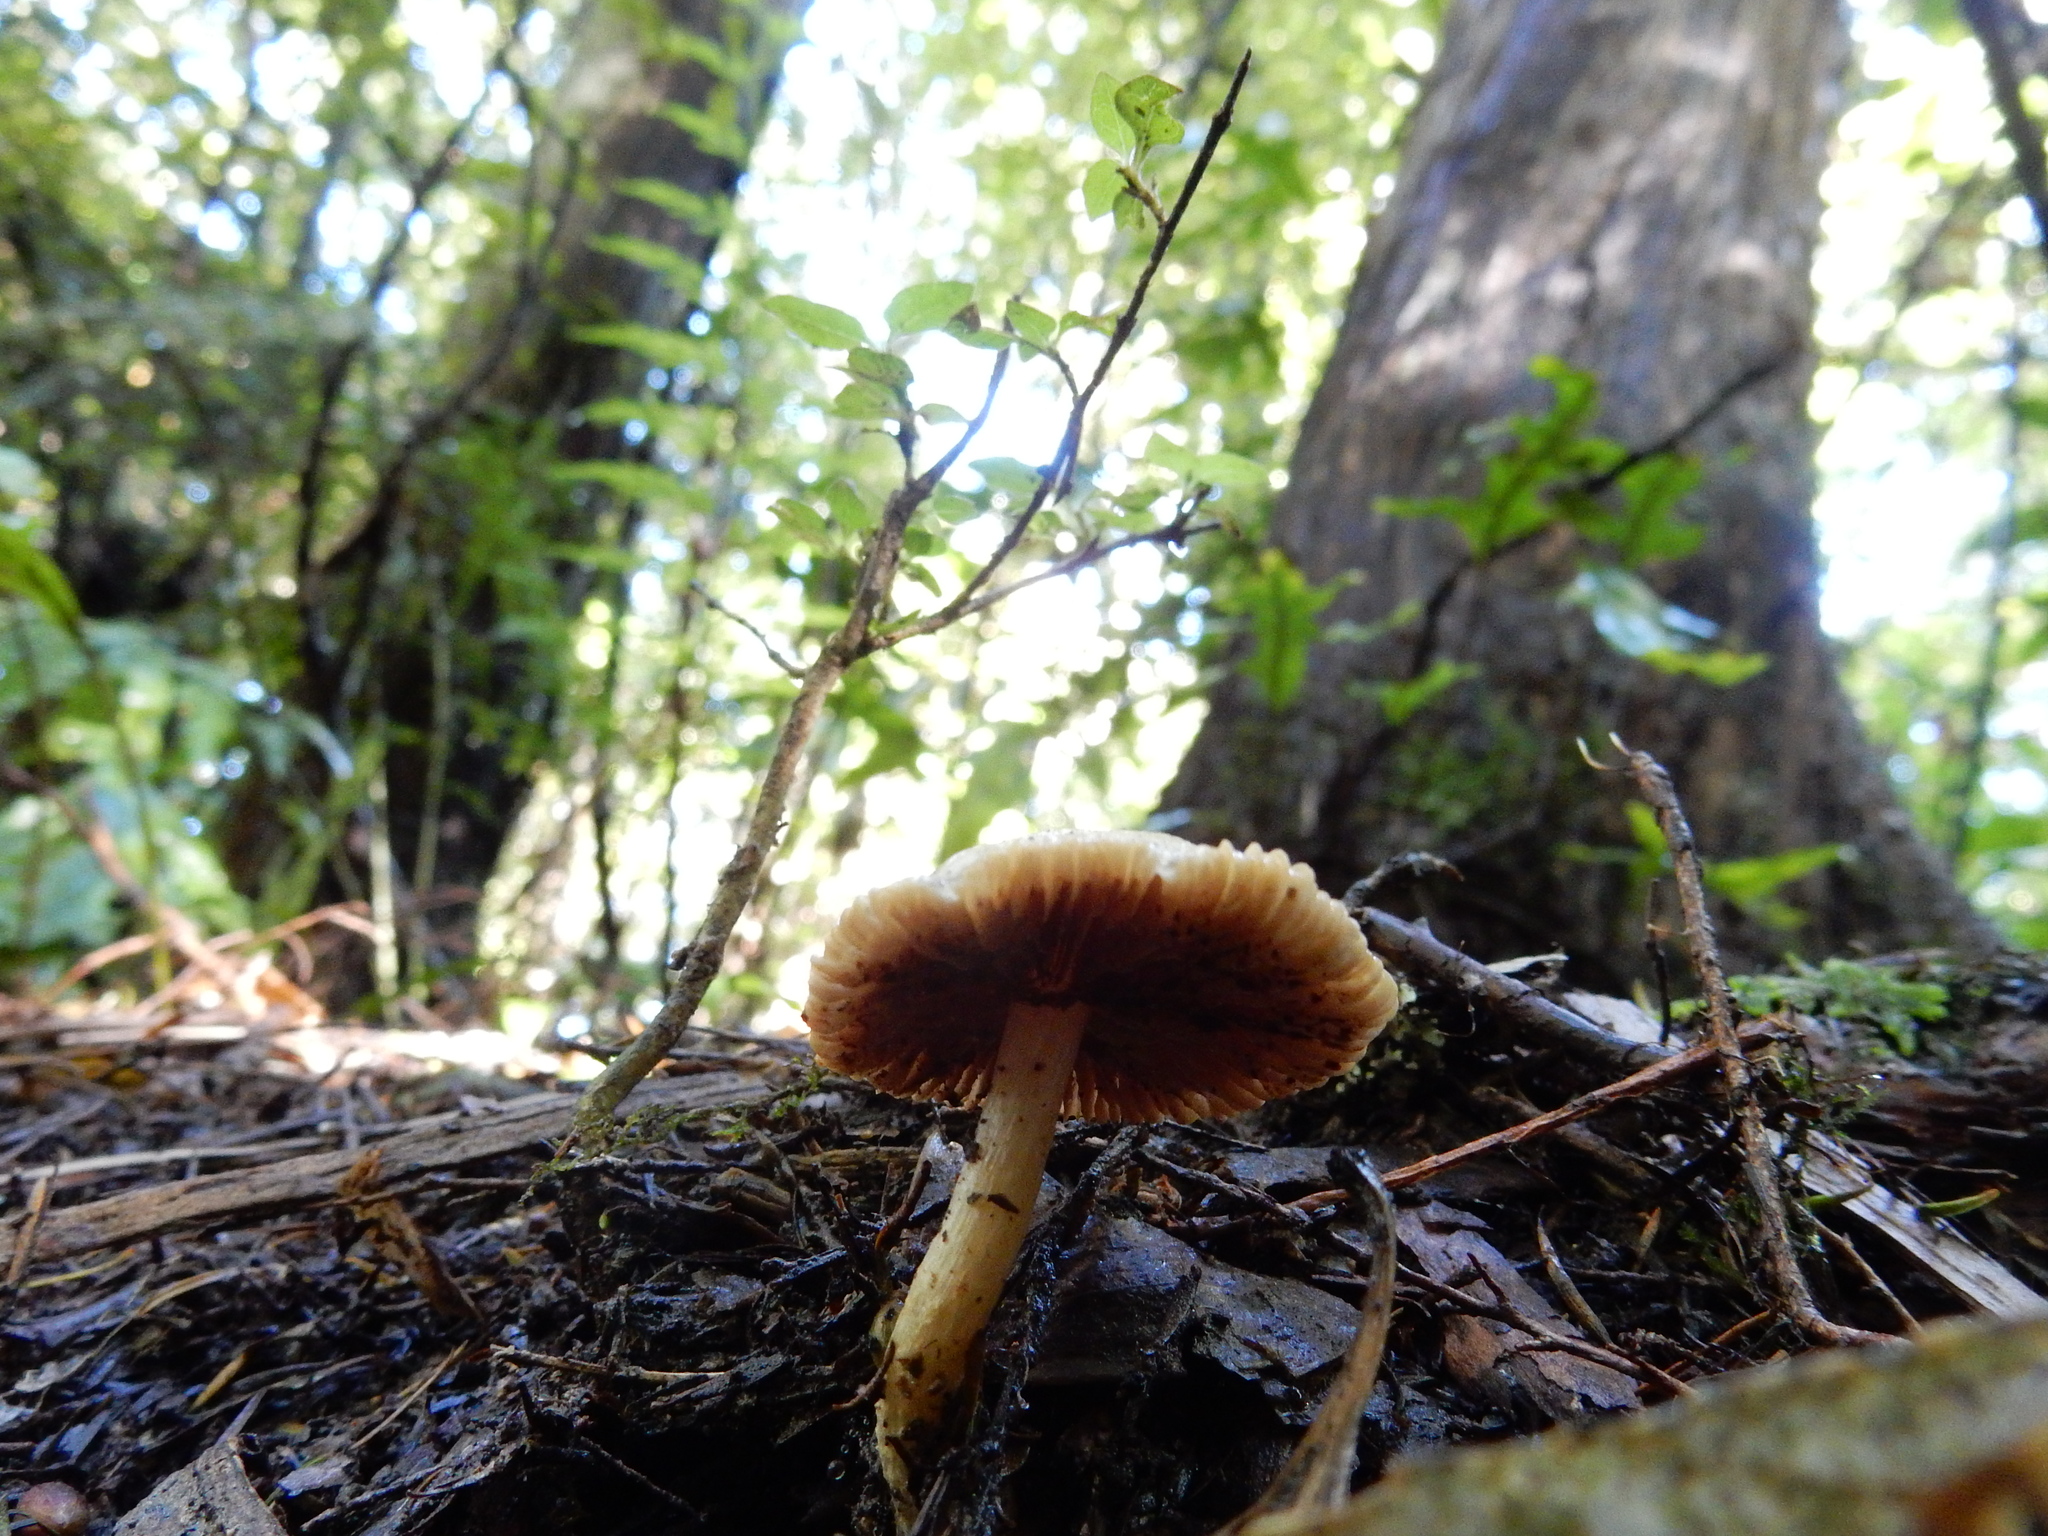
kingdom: Fungi
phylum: Basidiomycota
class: Agaricomycetes
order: Agaricales
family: Cortinariaceae
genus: Cortinarius
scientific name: Cortinarius calaisopus
